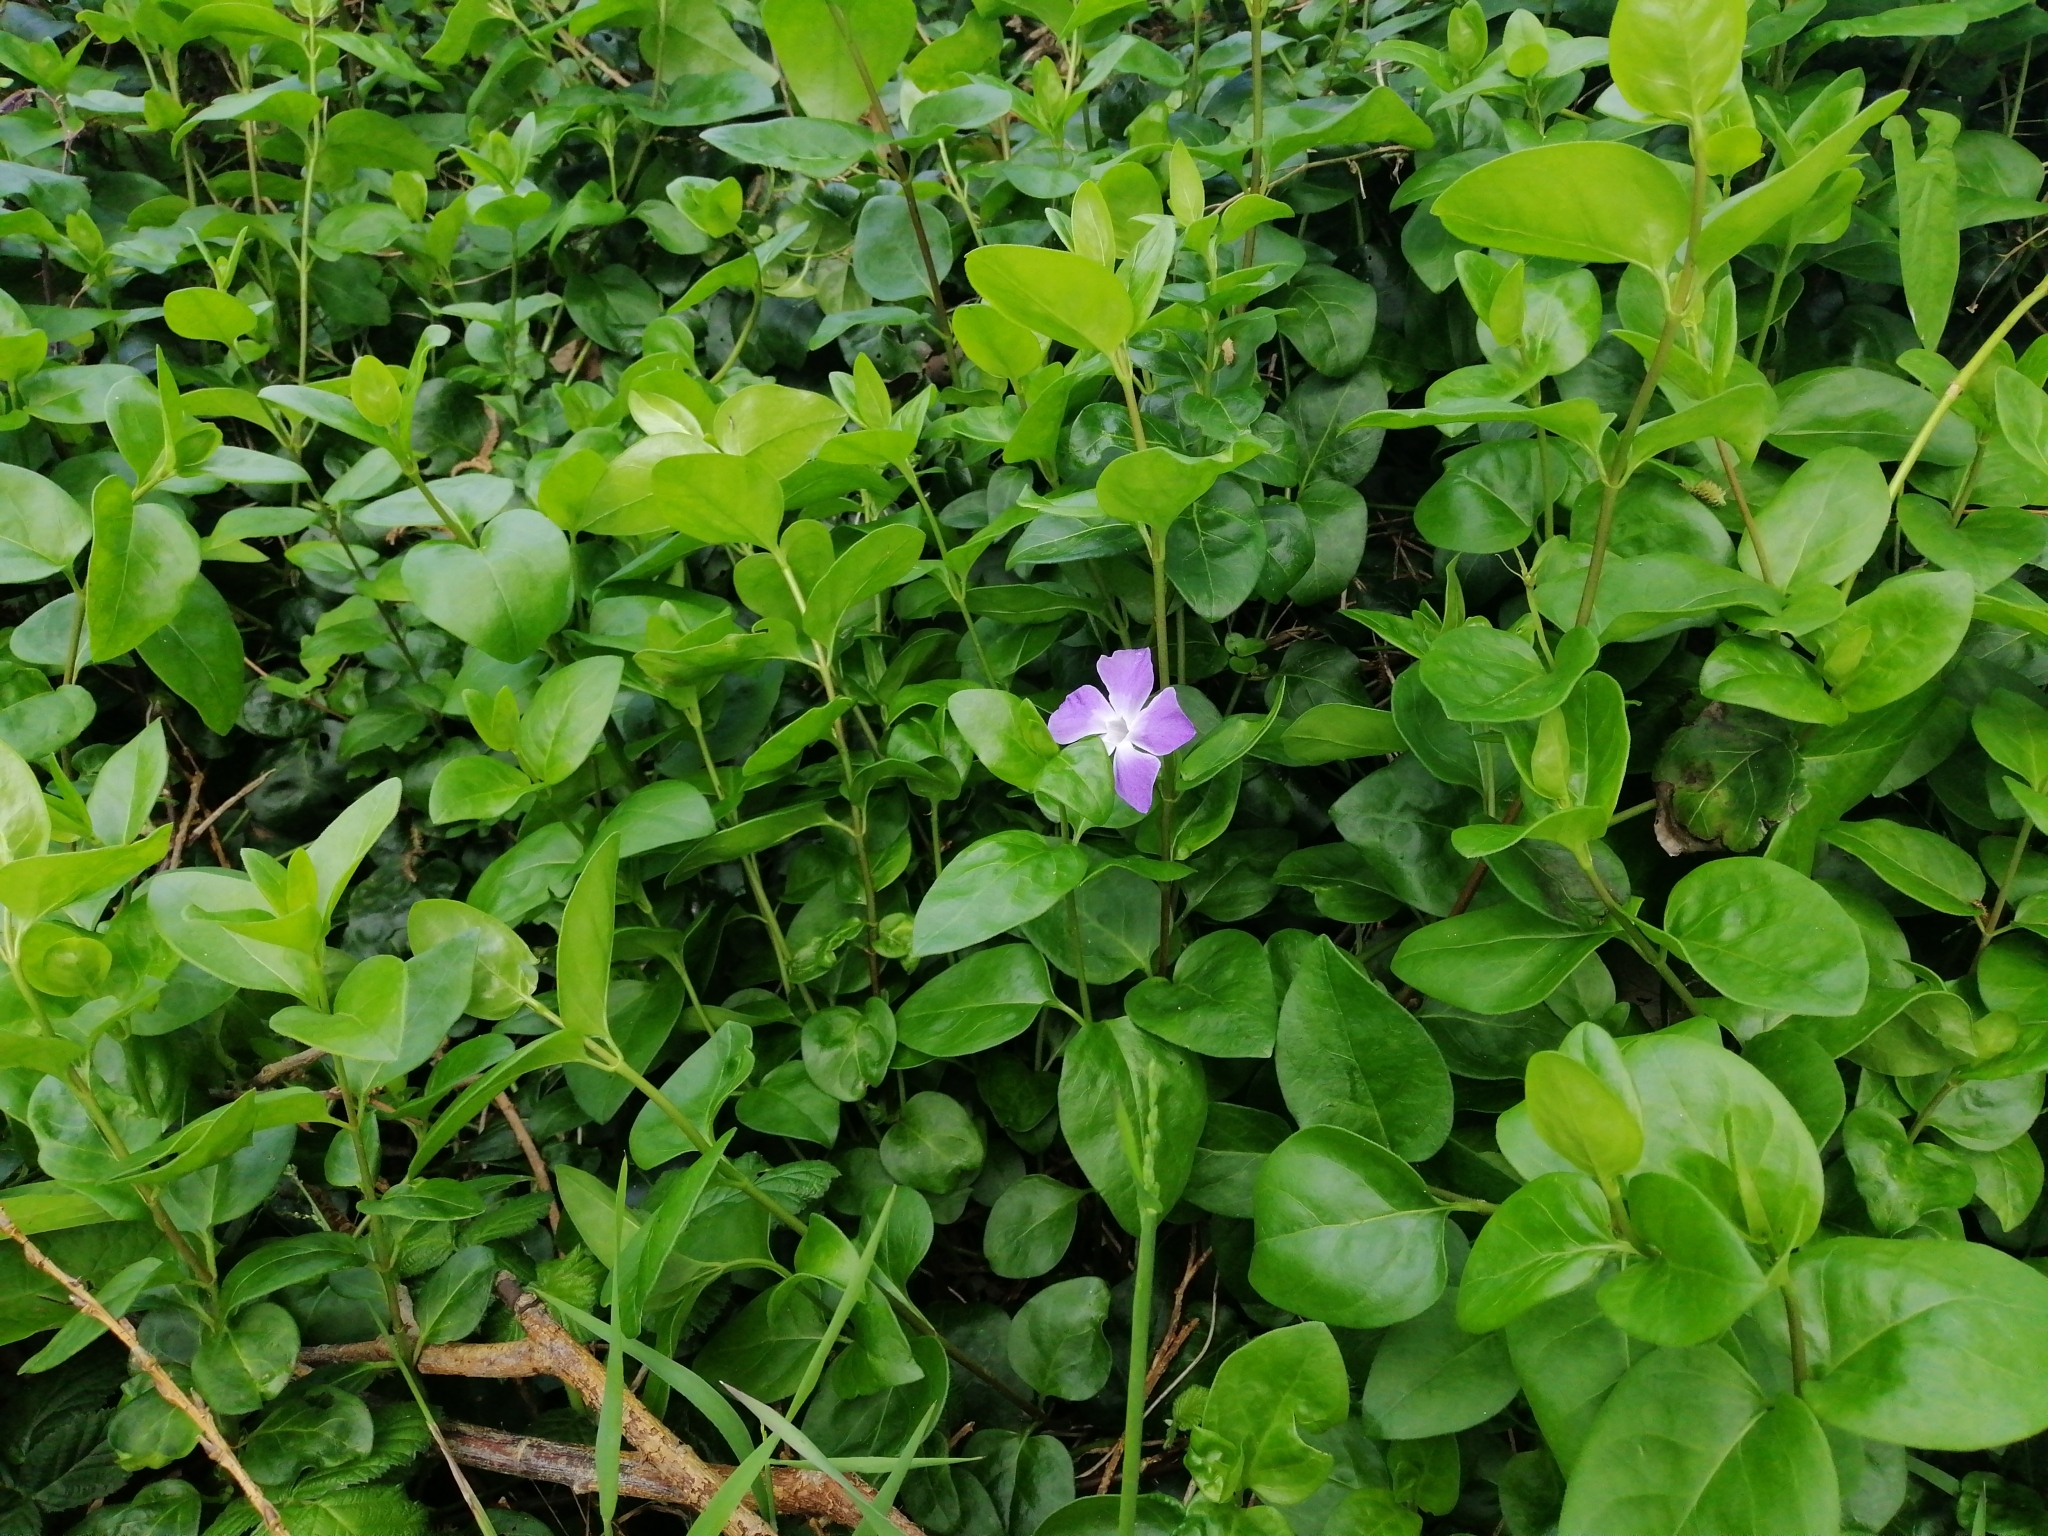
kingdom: Plantae
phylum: Tracheophyta
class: Magnoliopsida
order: Gentianales
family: Apocynaceae
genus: Vinca
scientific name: Vinca major
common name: Greater periwinkle
